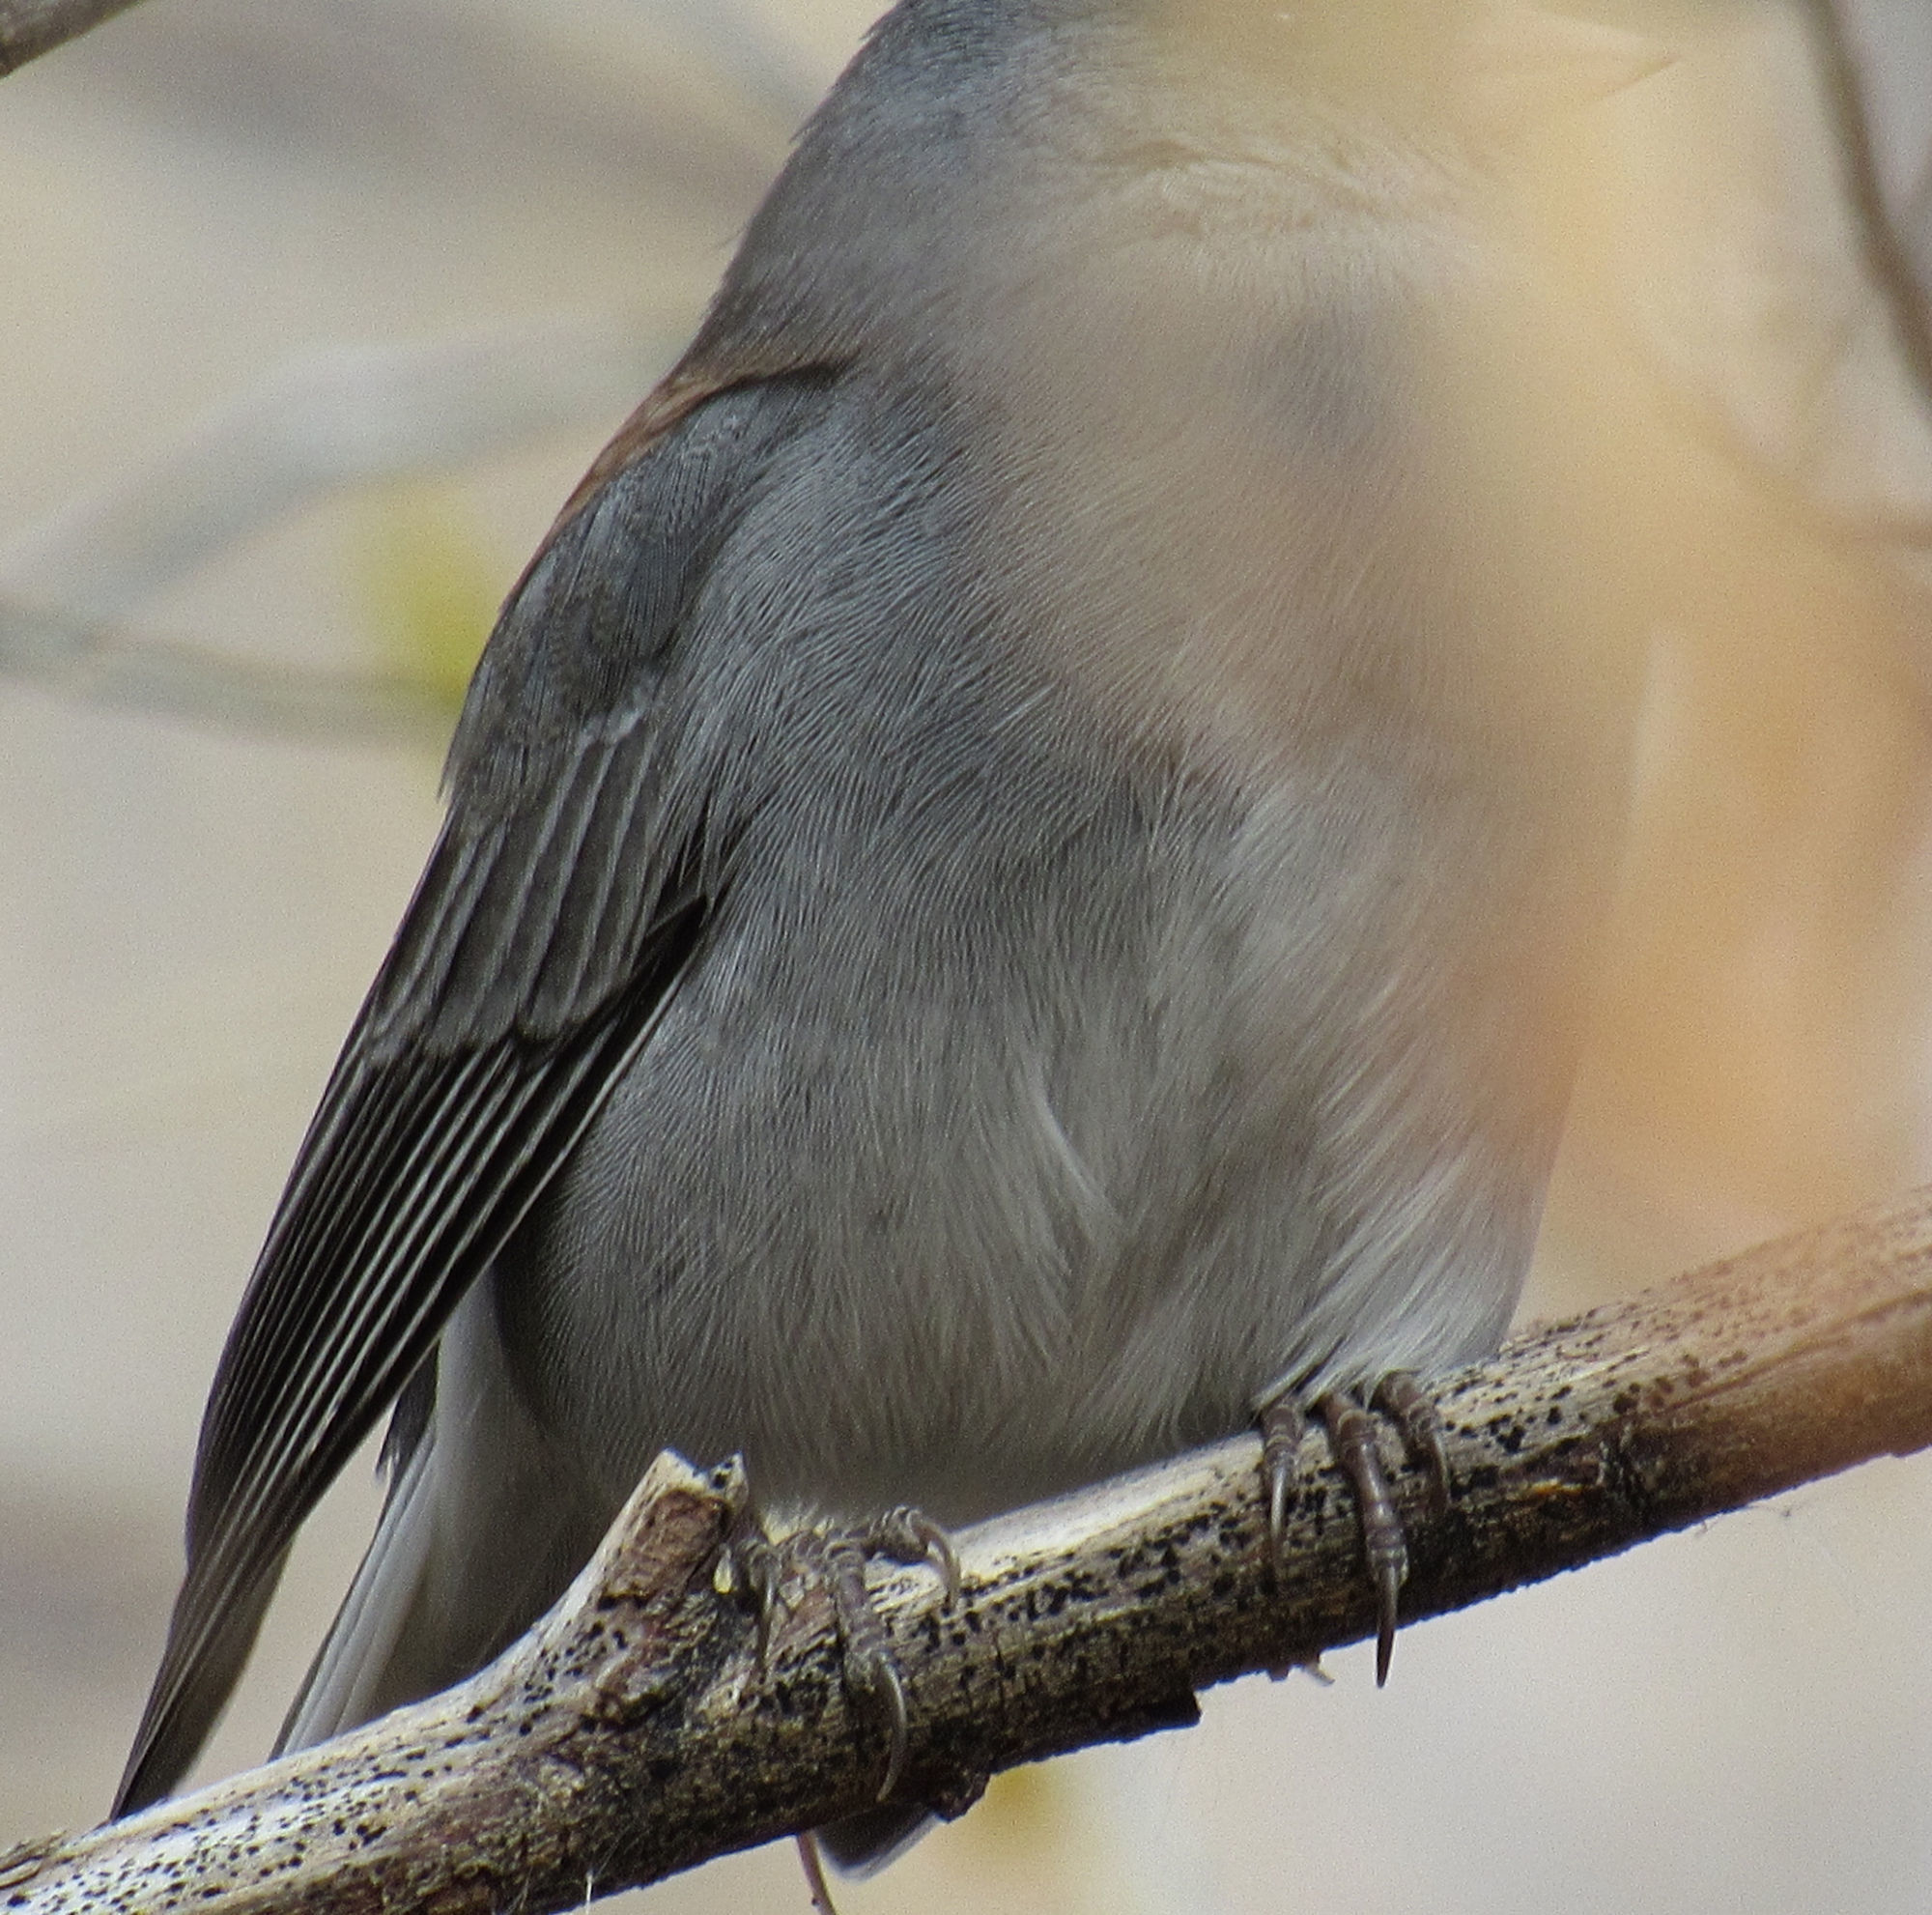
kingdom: Animalia
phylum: Chordata
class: Aves
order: Passeriformes
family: Passerellidae
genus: Junco
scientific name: Junco hyemalis
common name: Dark-eyed junco
